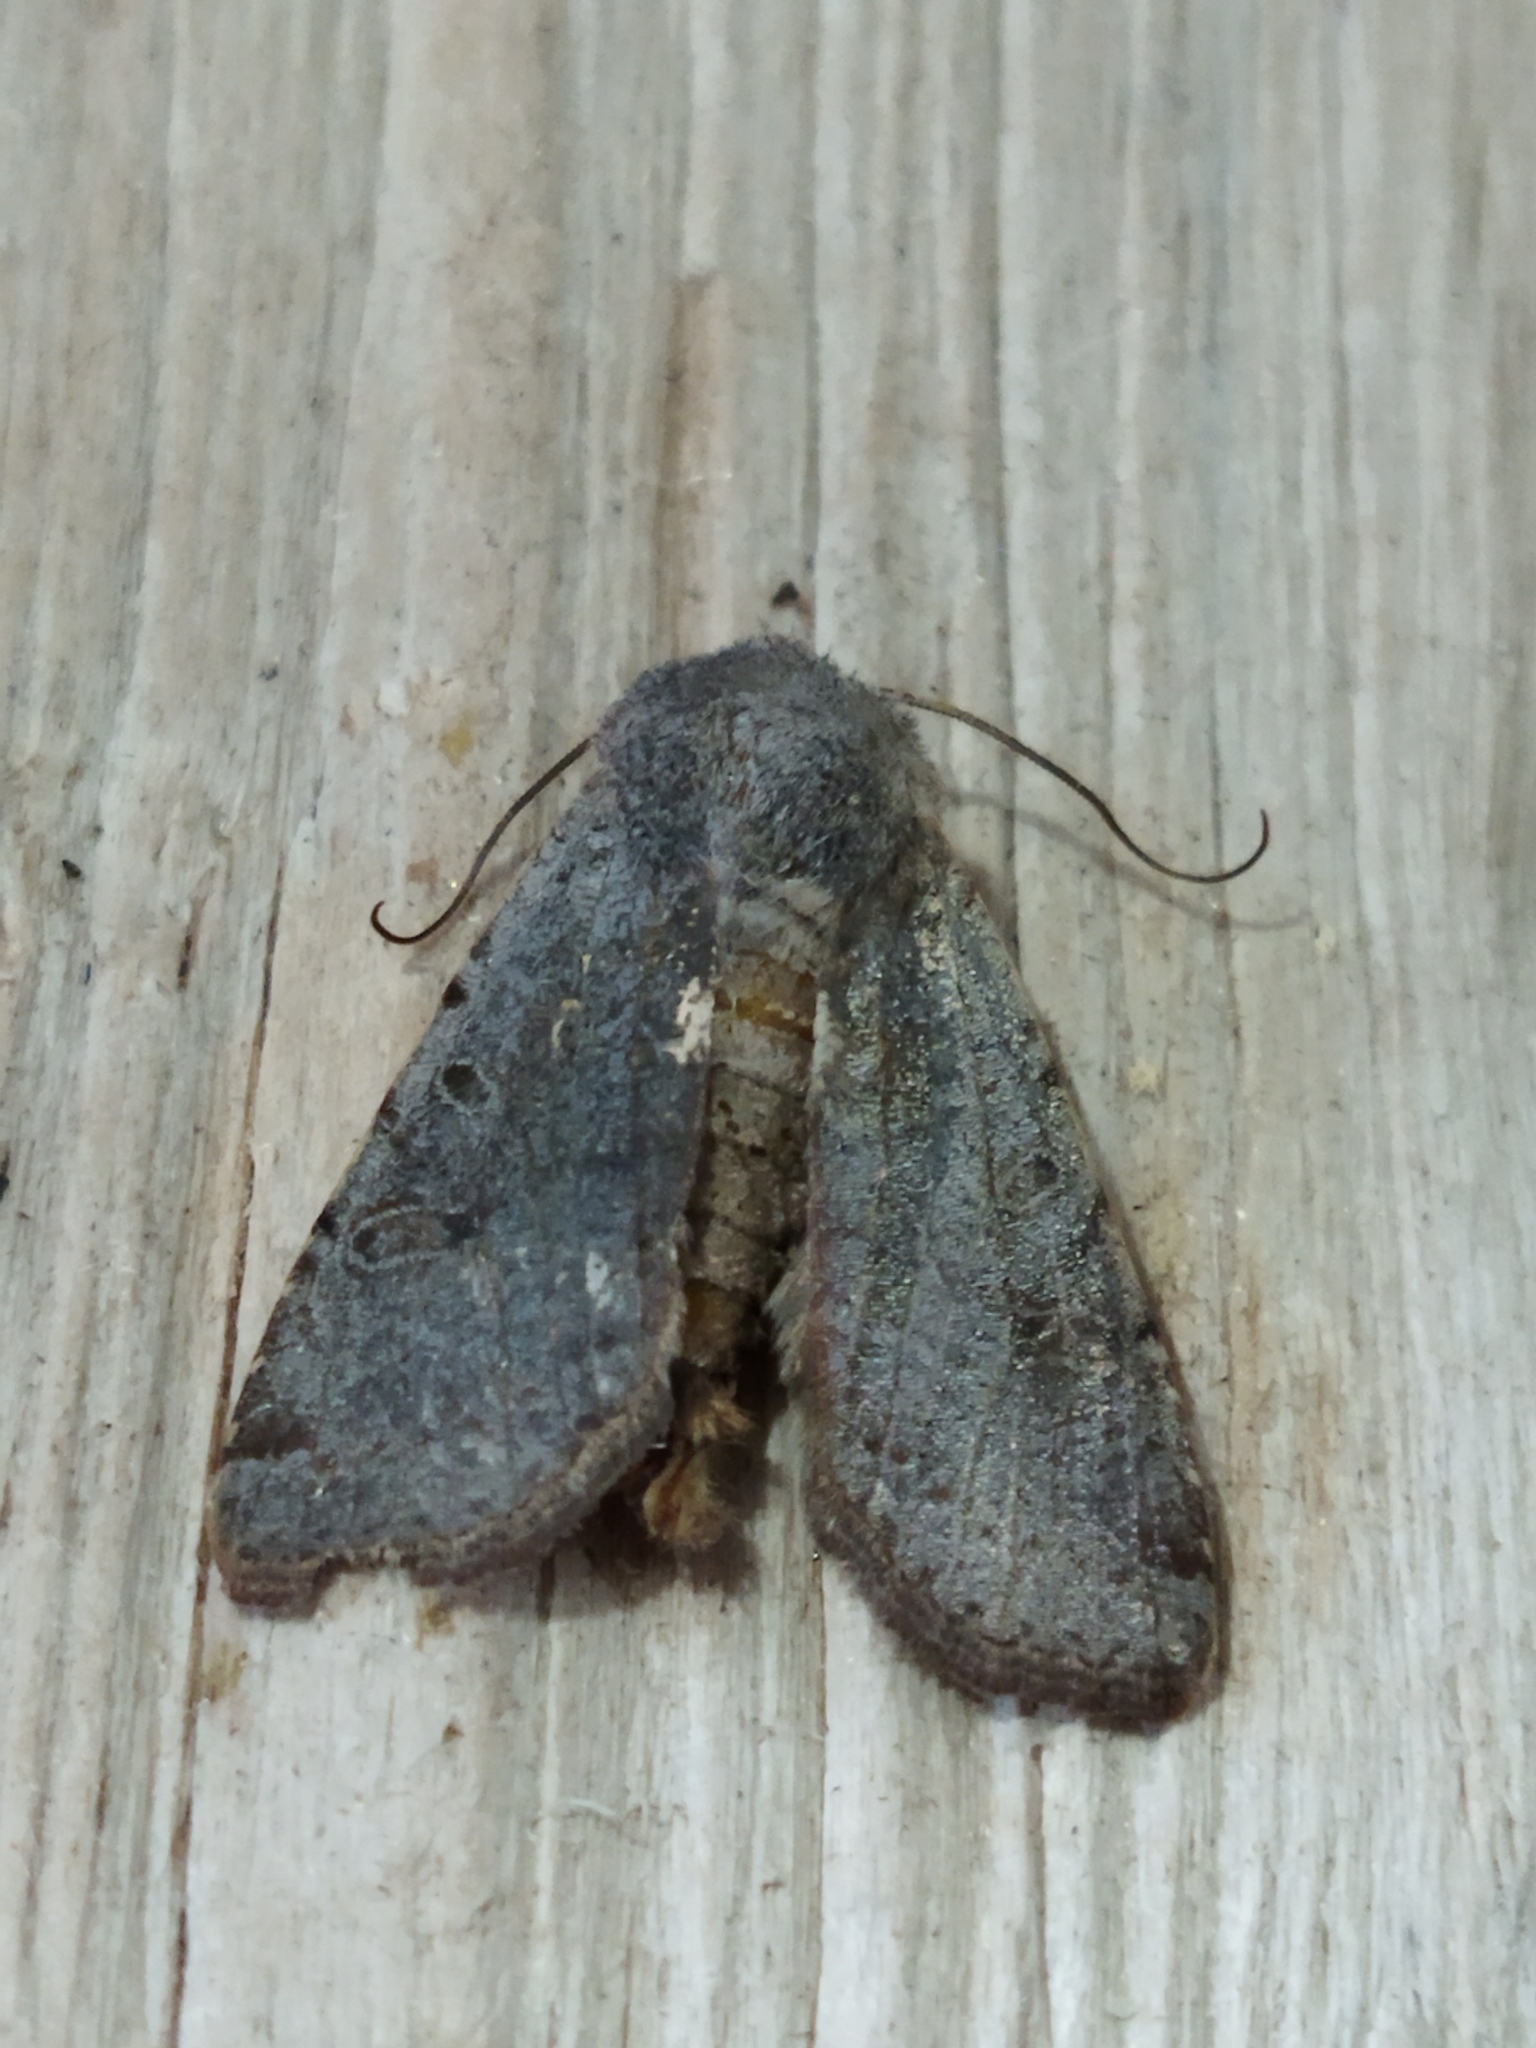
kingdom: Animalia
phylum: Arthropoda
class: Insecta
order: Lepidoptera
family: Noctuidae
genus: Agrochola
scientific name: Agrochola lychnidis
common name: Beaded chestnut
